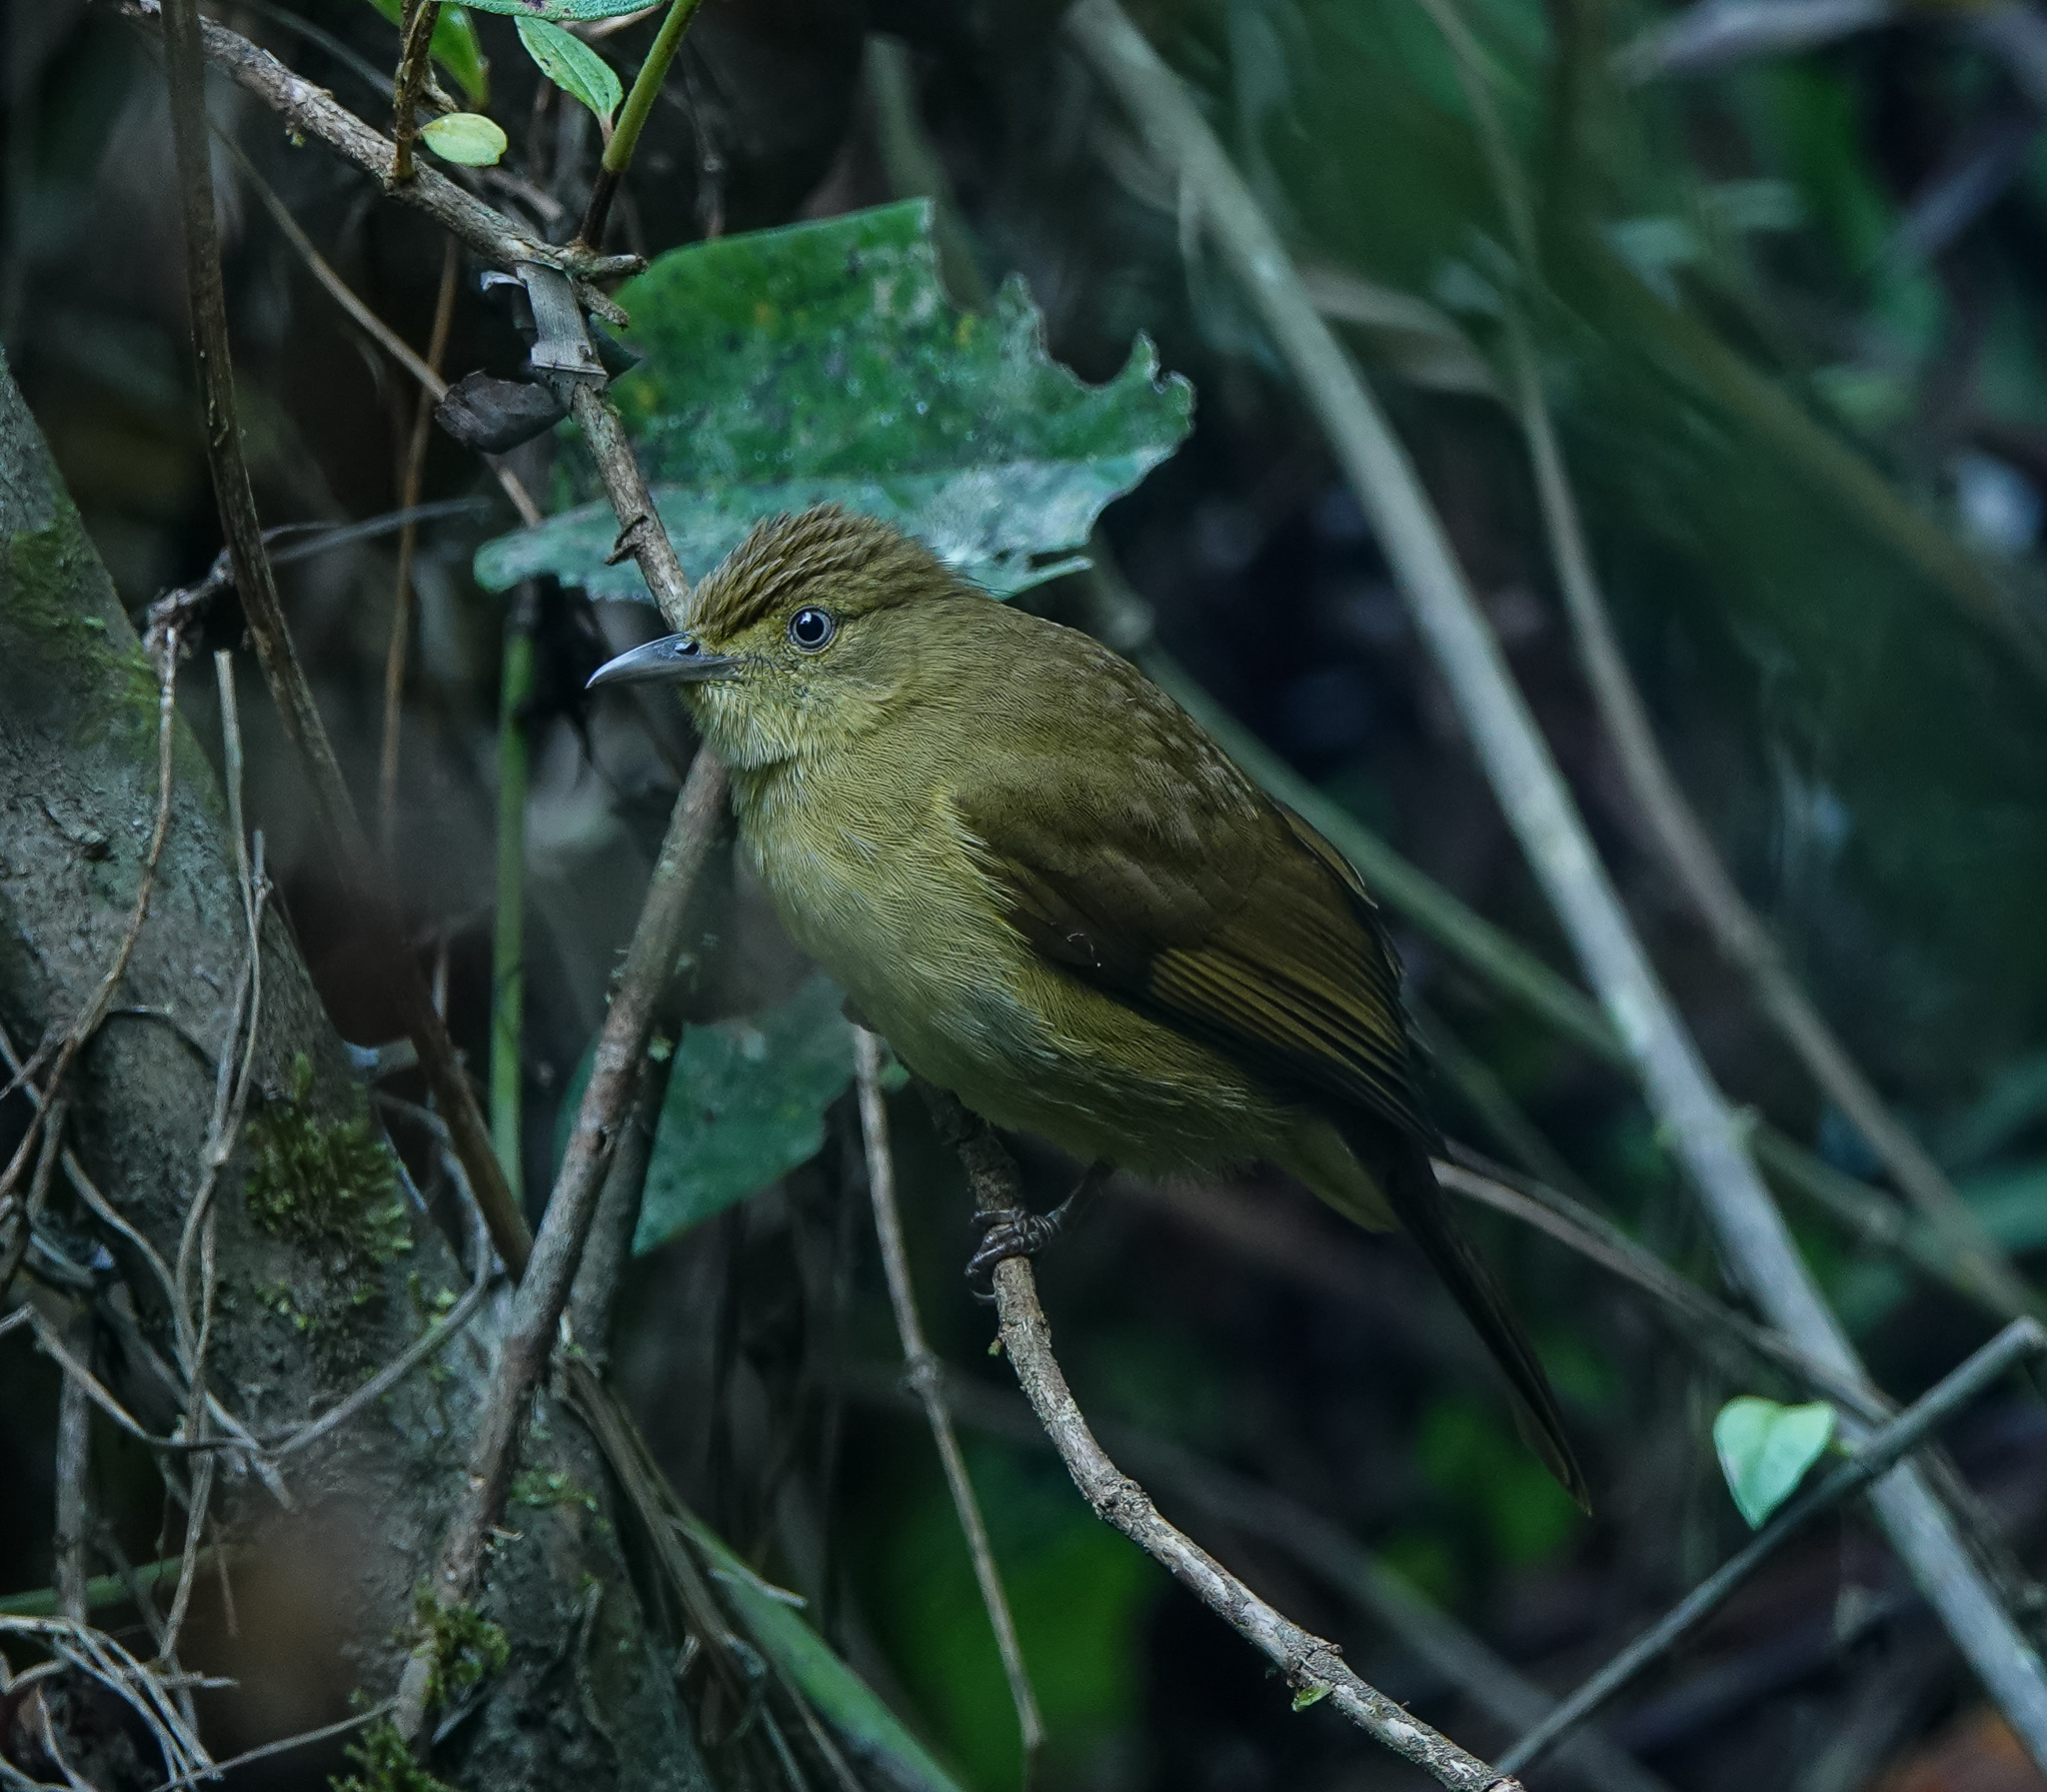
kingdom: Animalia
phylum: Chordata
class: Aves
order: Passeriformes
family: Pycnonotidae
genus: Iole
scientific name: Iole virescens
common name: Olive bulbul
